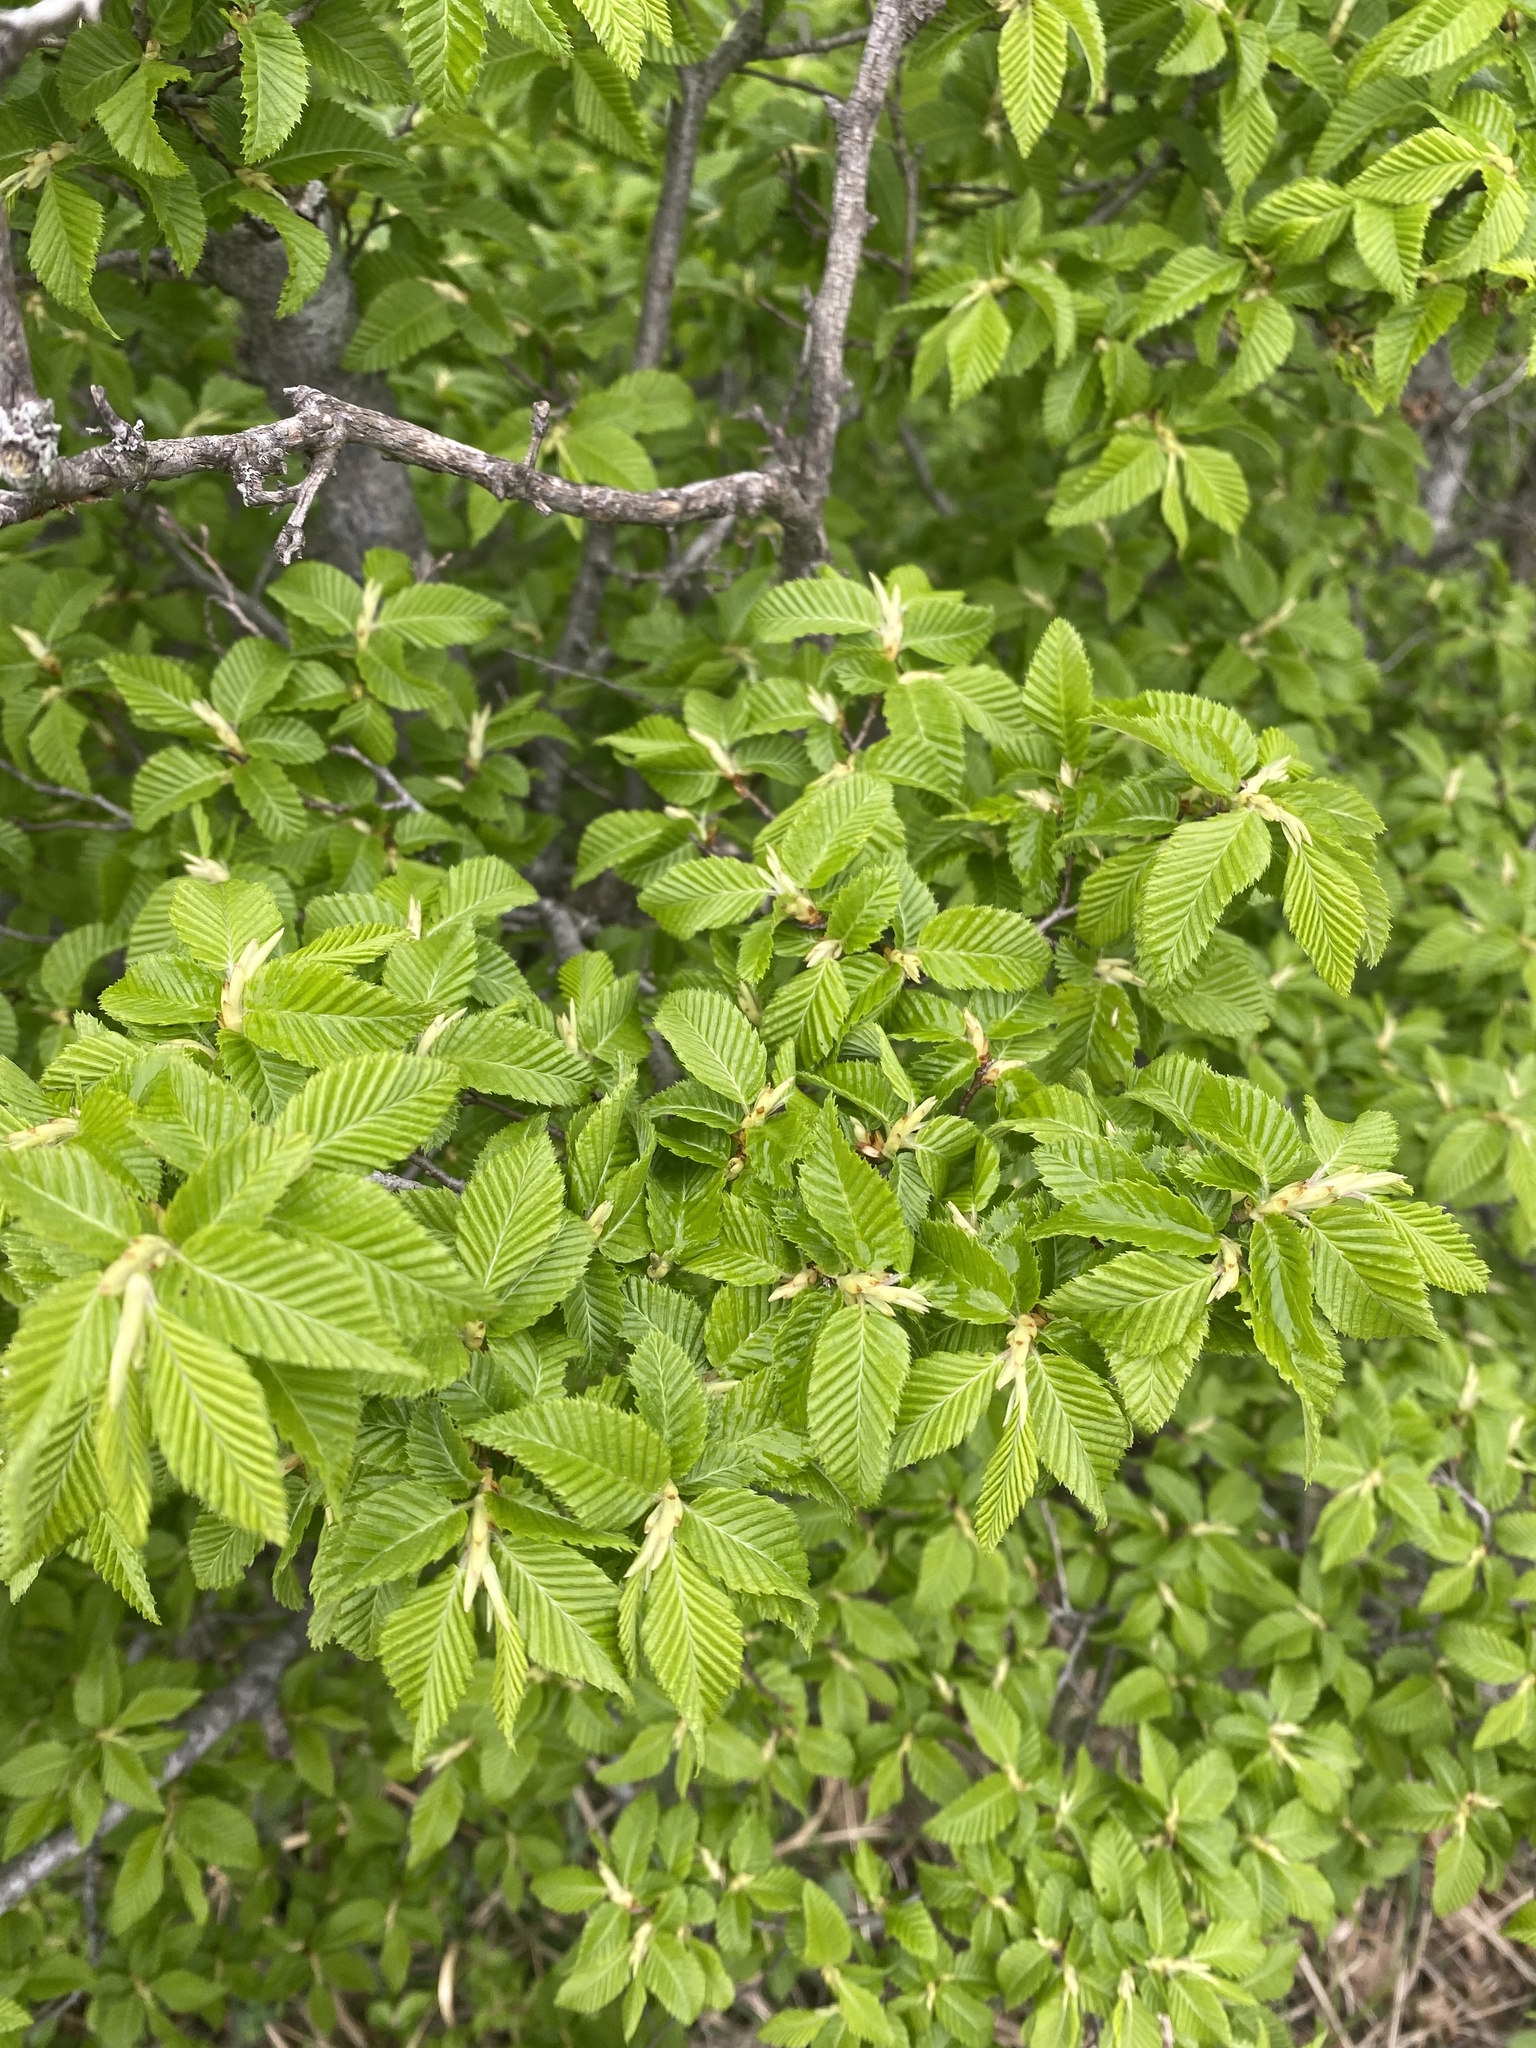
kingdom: Plantae
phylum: Tracheophyta
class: Magnoliopsida
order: Fagales
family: Betulaceae
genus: Carpinus
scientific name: Carpinus orientalis
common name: Eastern hornbeam
